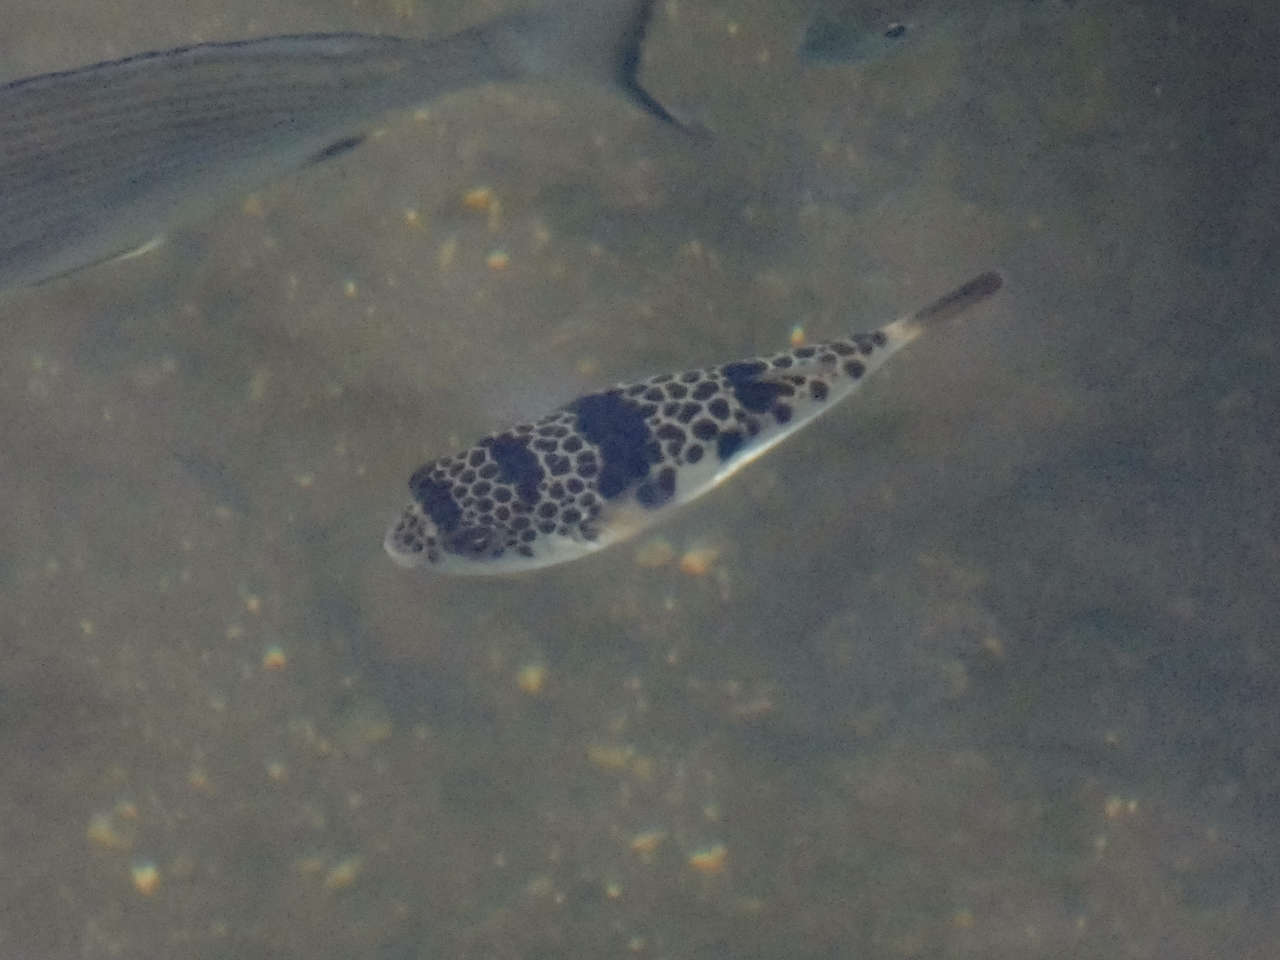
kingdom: Animalia
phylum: Chordata
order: Tetraodontiformes
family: Tetraodontidae
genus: Tetractenos
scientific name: Tetractenos glaber
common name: Smooth toadfish
